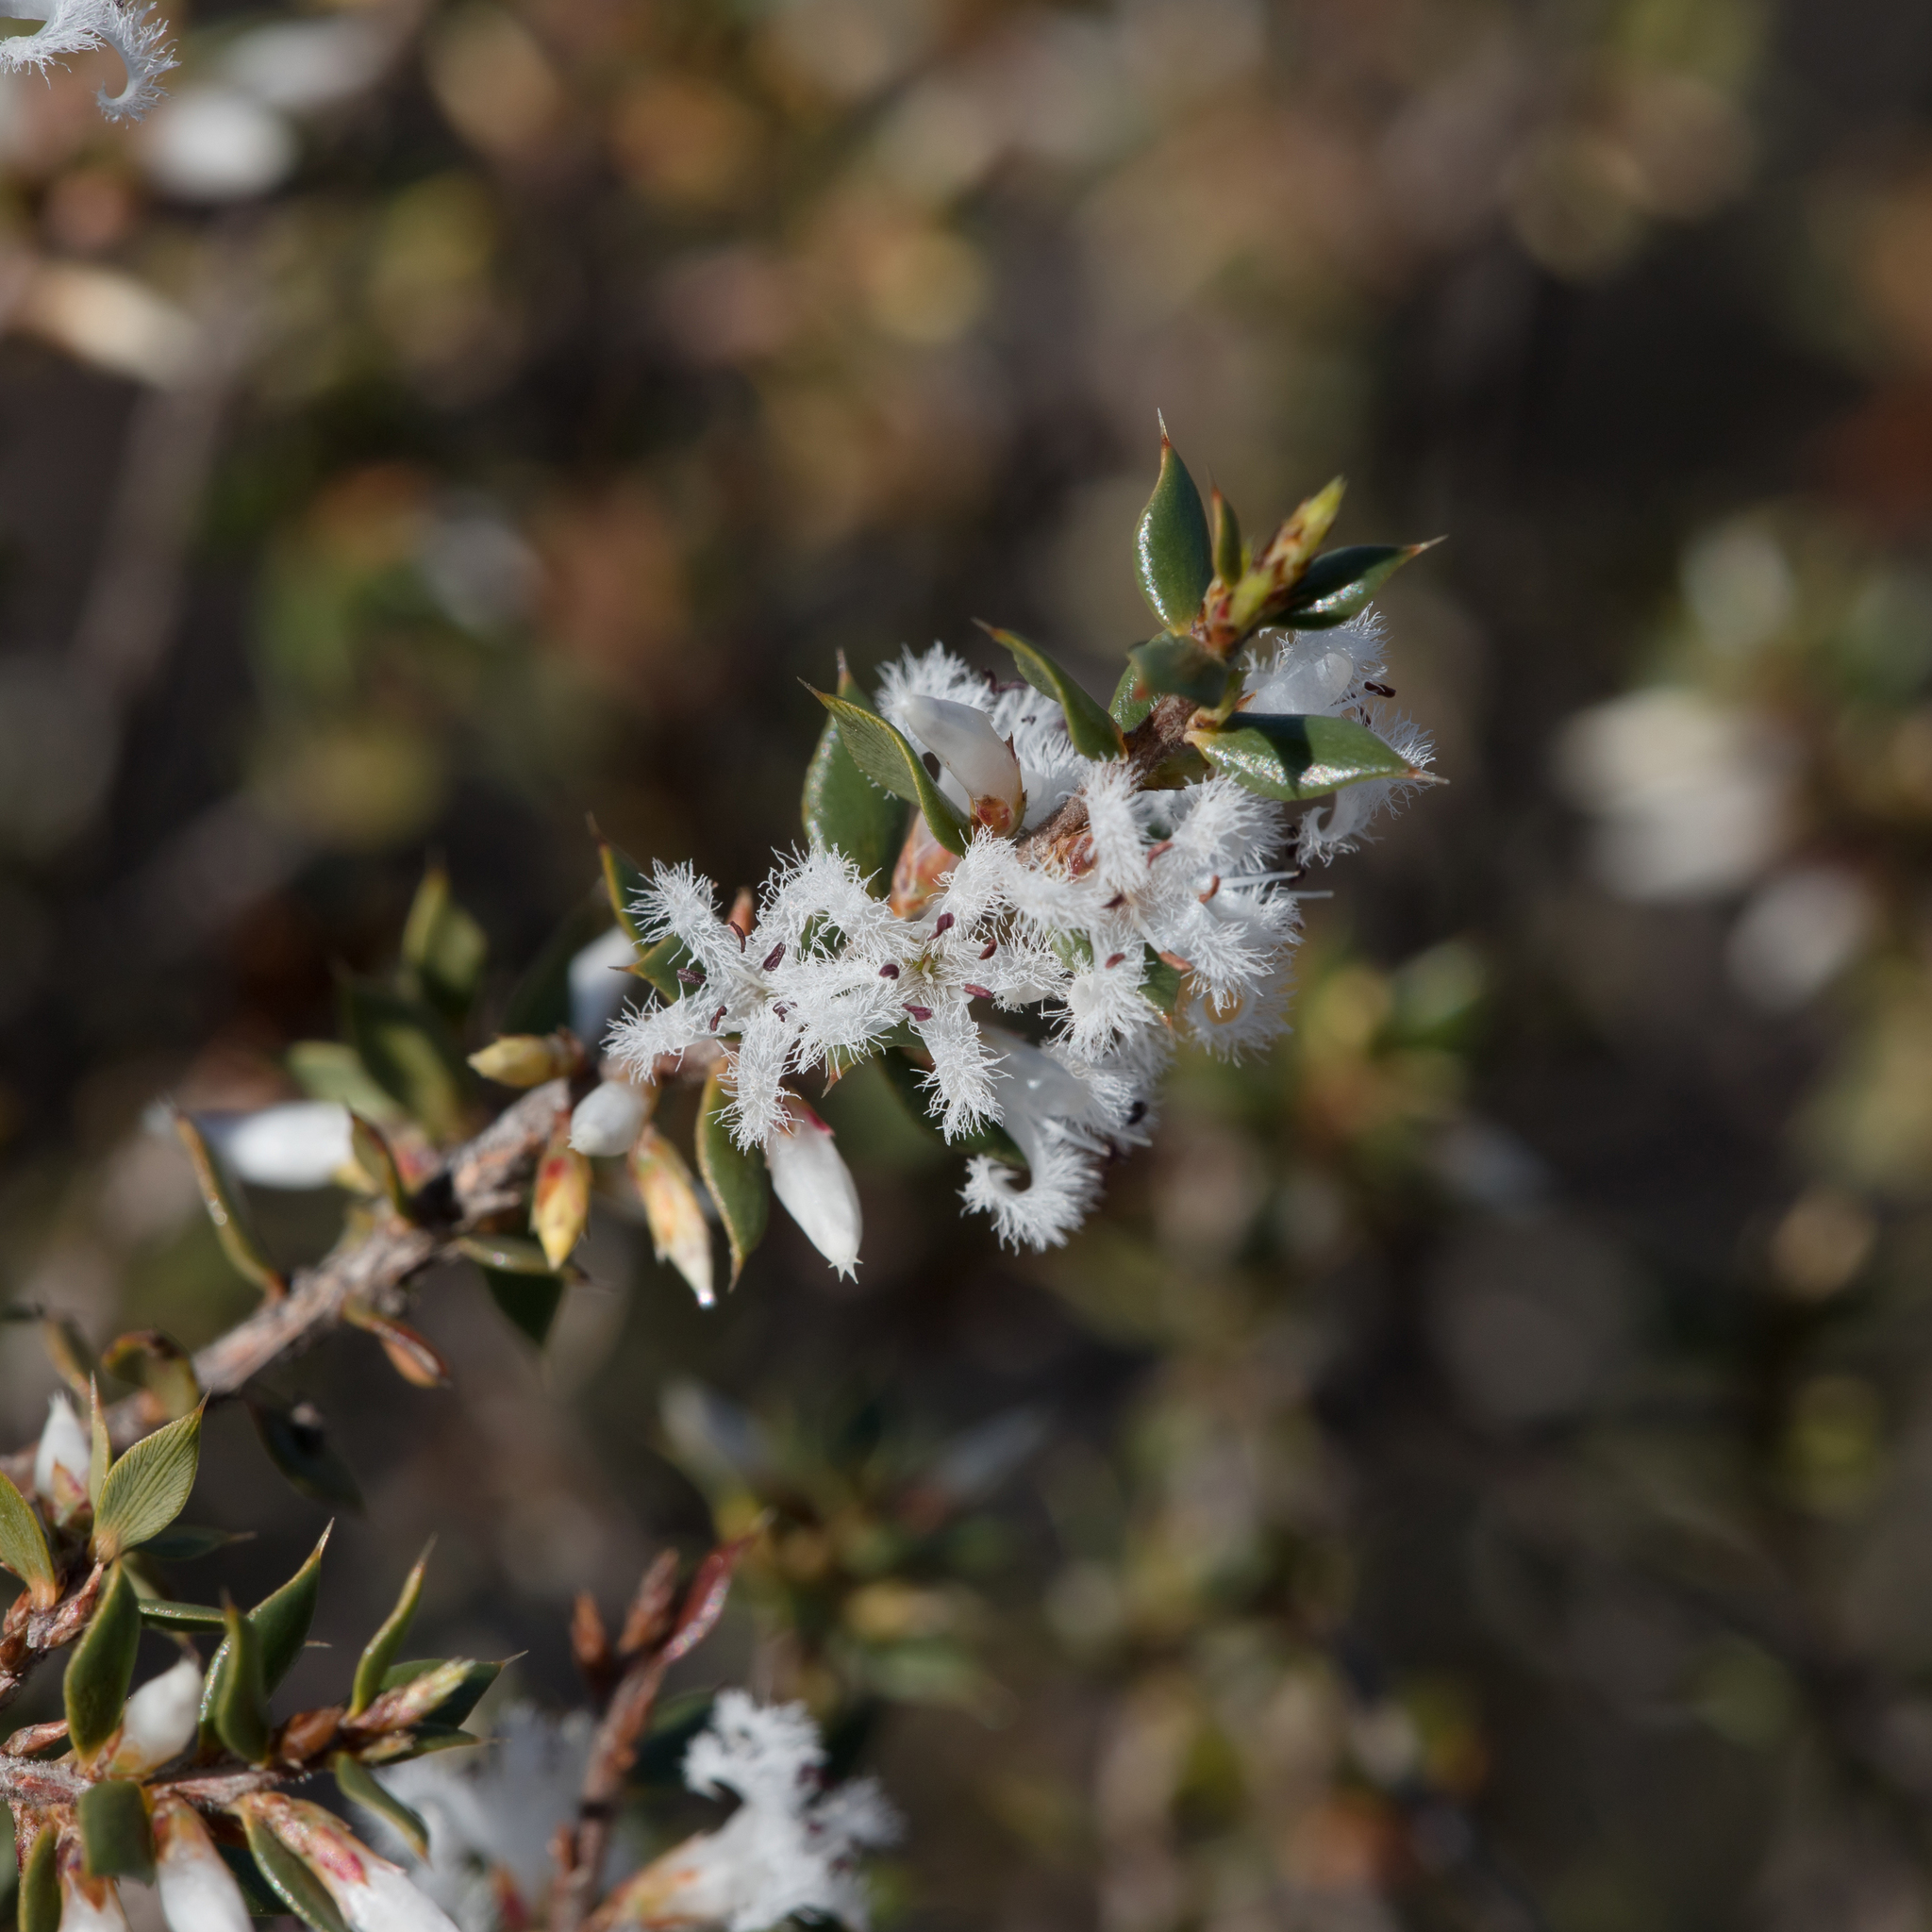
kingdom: Plantae
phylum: Tracheophyta
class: Magnoliopsida
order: Ericales
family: Ericaceae
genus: Styphelia
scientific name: Styphelia exarrhena
